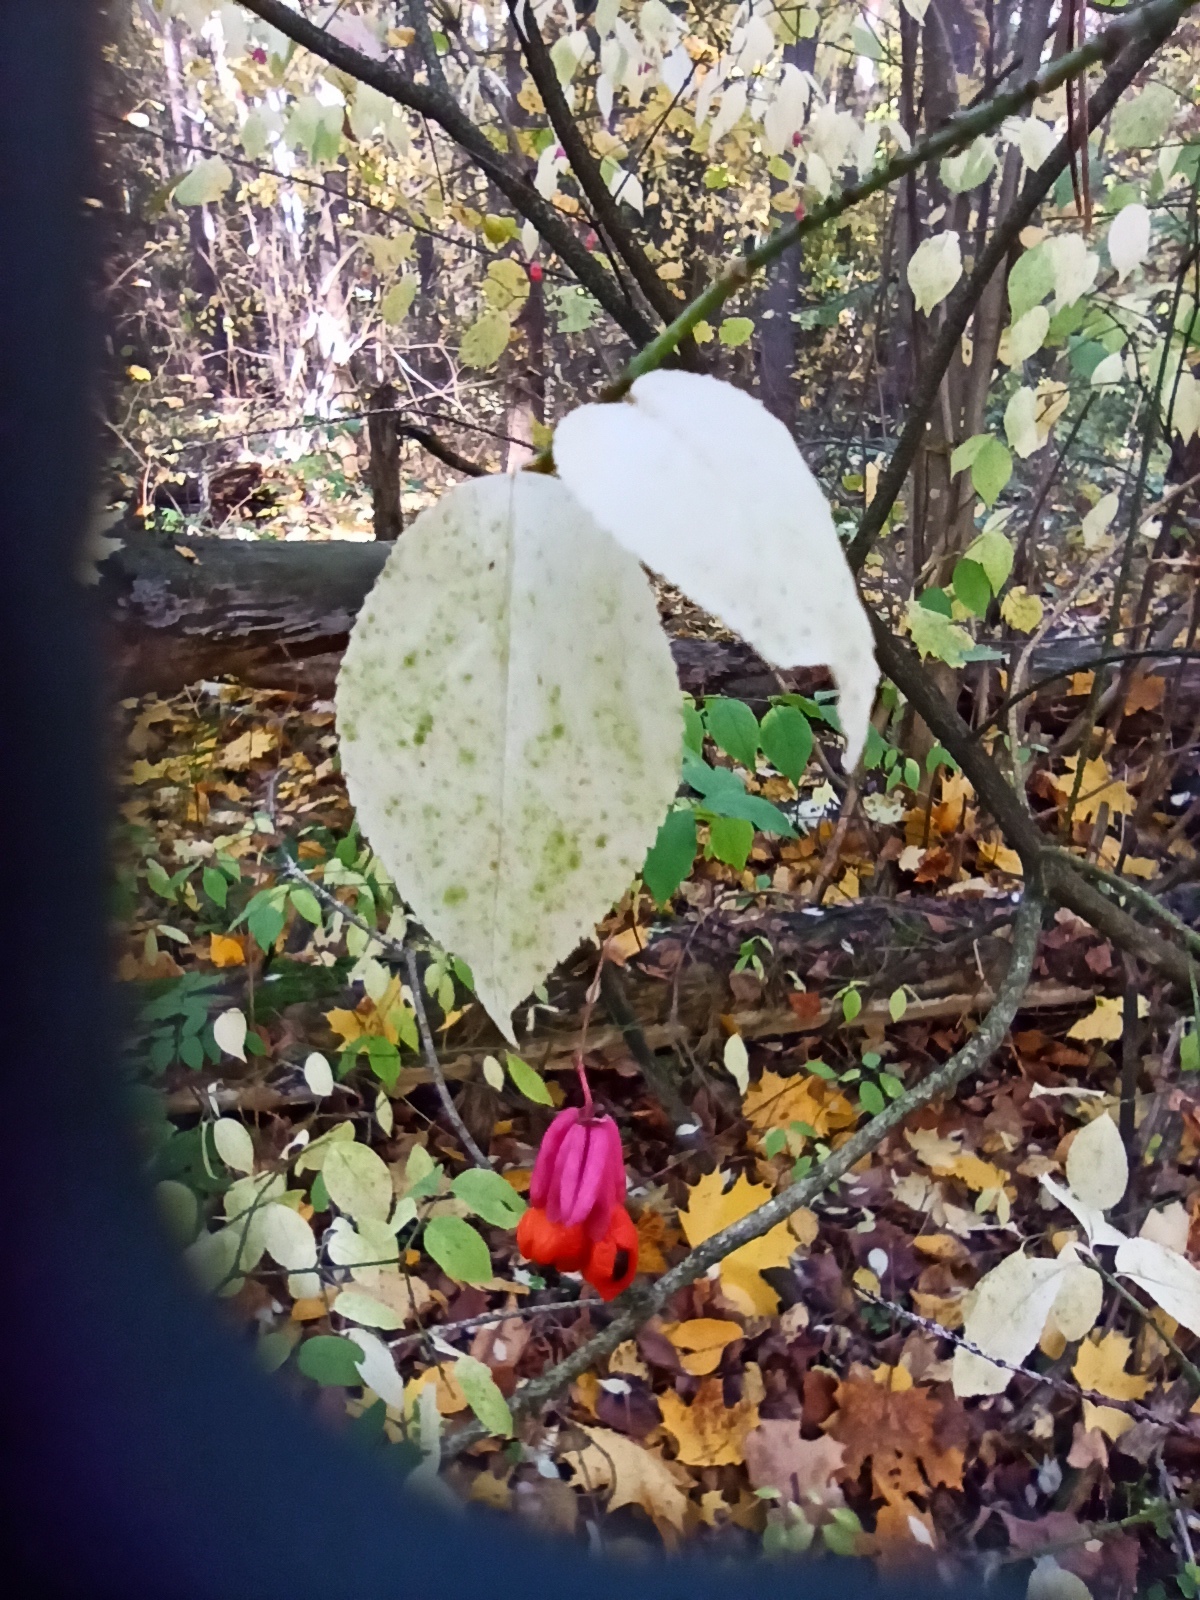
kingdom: Plantae
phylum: Tracheophyta
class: Magnoliopsida
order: Celastrales
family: Celastraceae
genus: Euonymus
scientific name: Euonymus verrucosus
